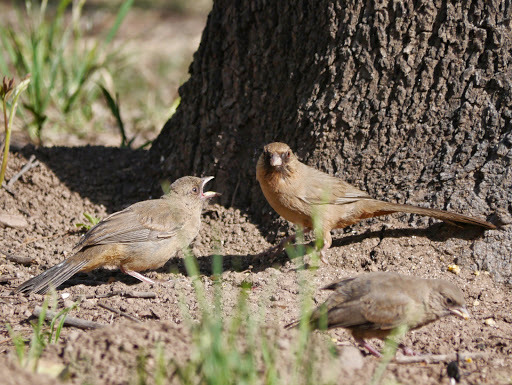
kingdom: Animalia
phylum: Chordata
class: Aves
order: Passeriformes
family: Passerellidae
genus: Melozone
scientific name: Melozone aberti
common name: Abert's towhee
